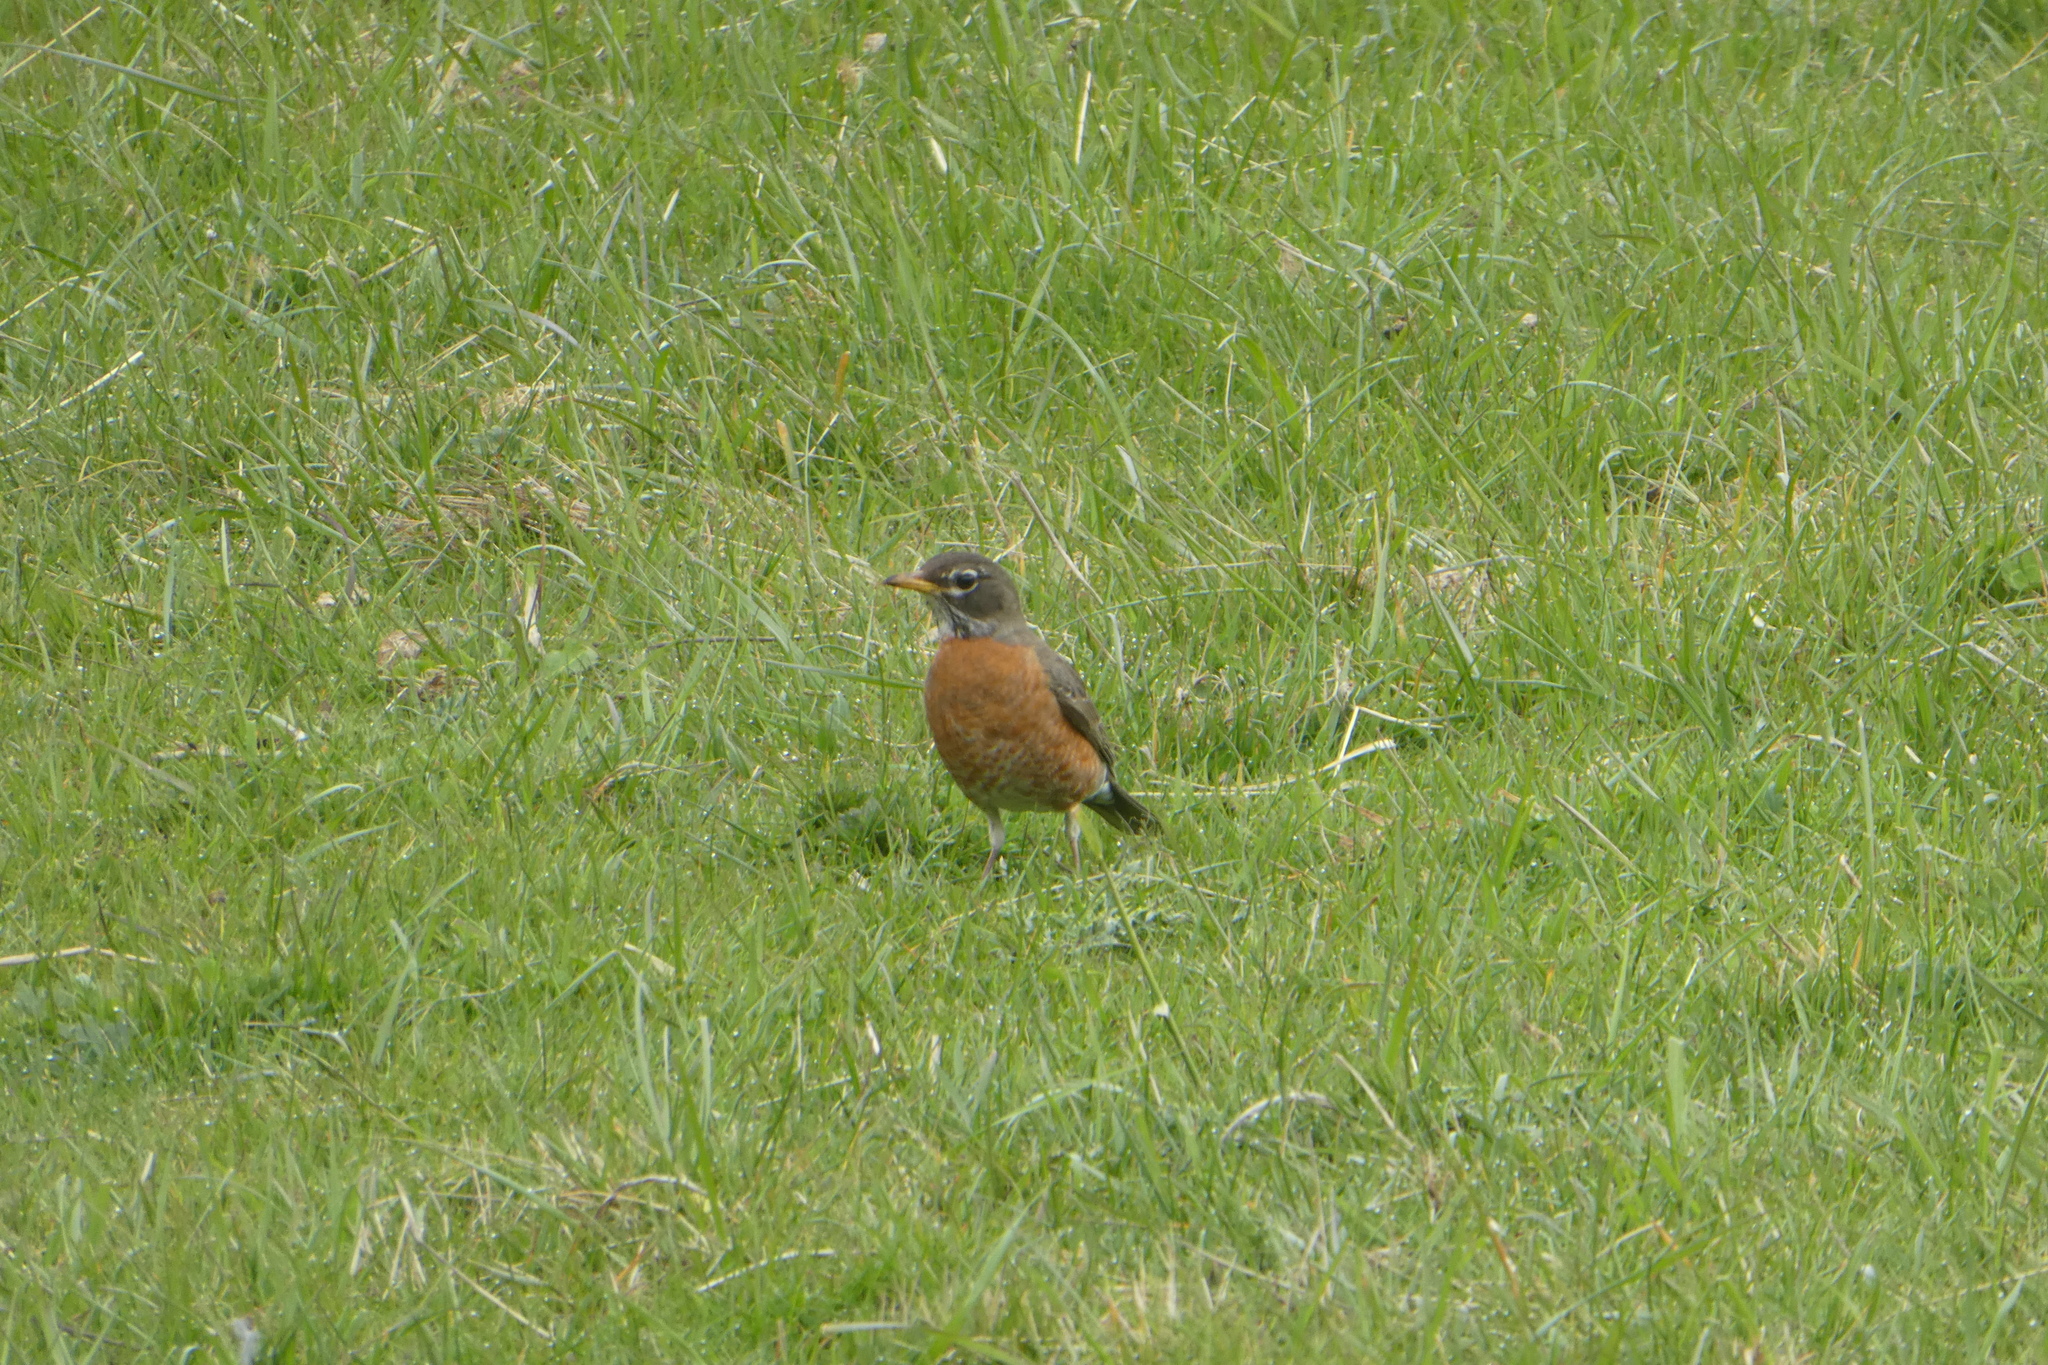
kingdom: Animalia
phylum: Chordata
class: Aves
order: Passeriformes
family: Turdidae
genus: Turdus
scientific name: Turdus migratorius
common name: American robin
